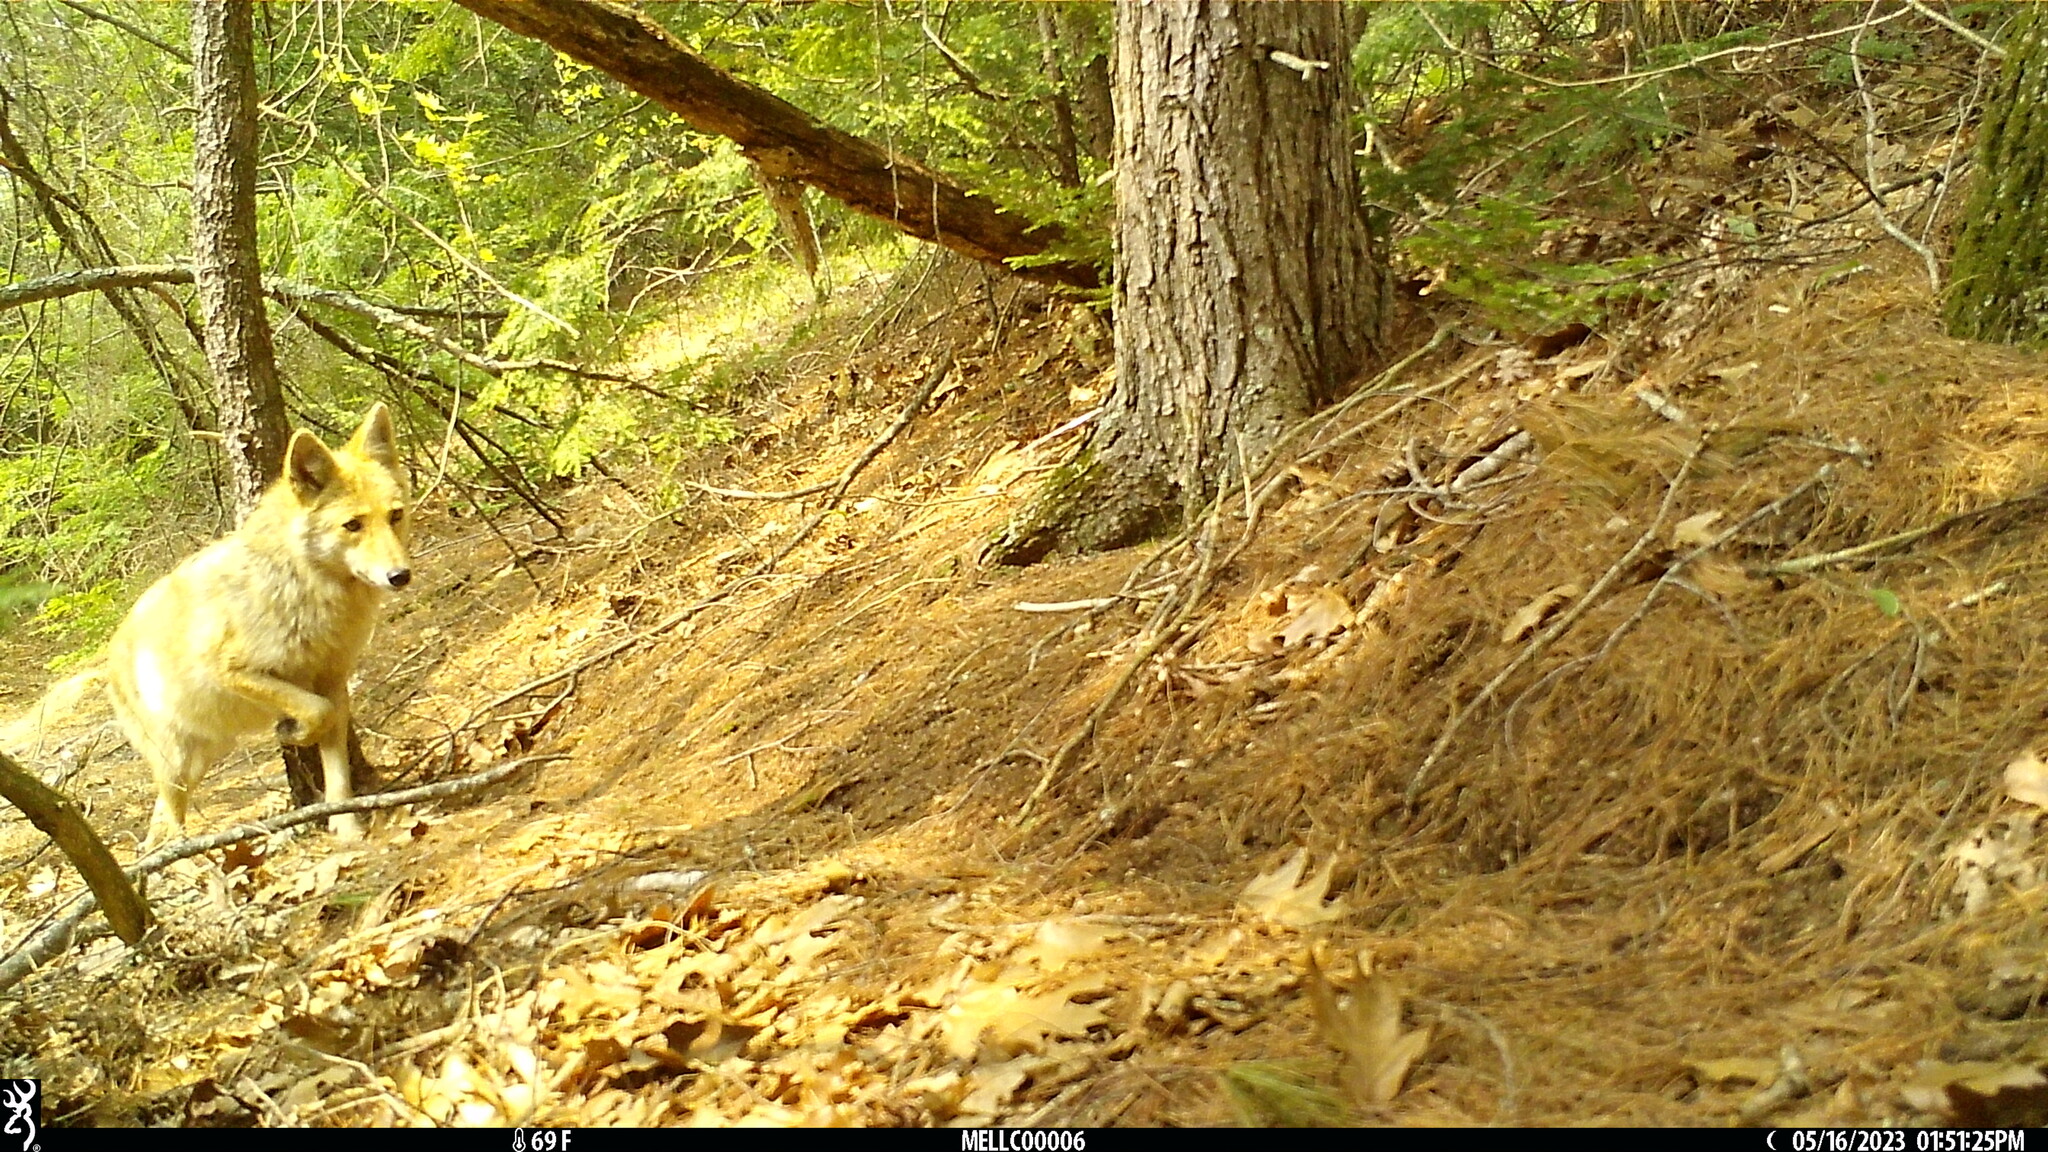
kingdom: Animalia
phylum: Chordata
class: Mammalia
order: Carnivora
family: Canidae
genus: Canis
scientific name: Canis latrans
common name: Coyote
